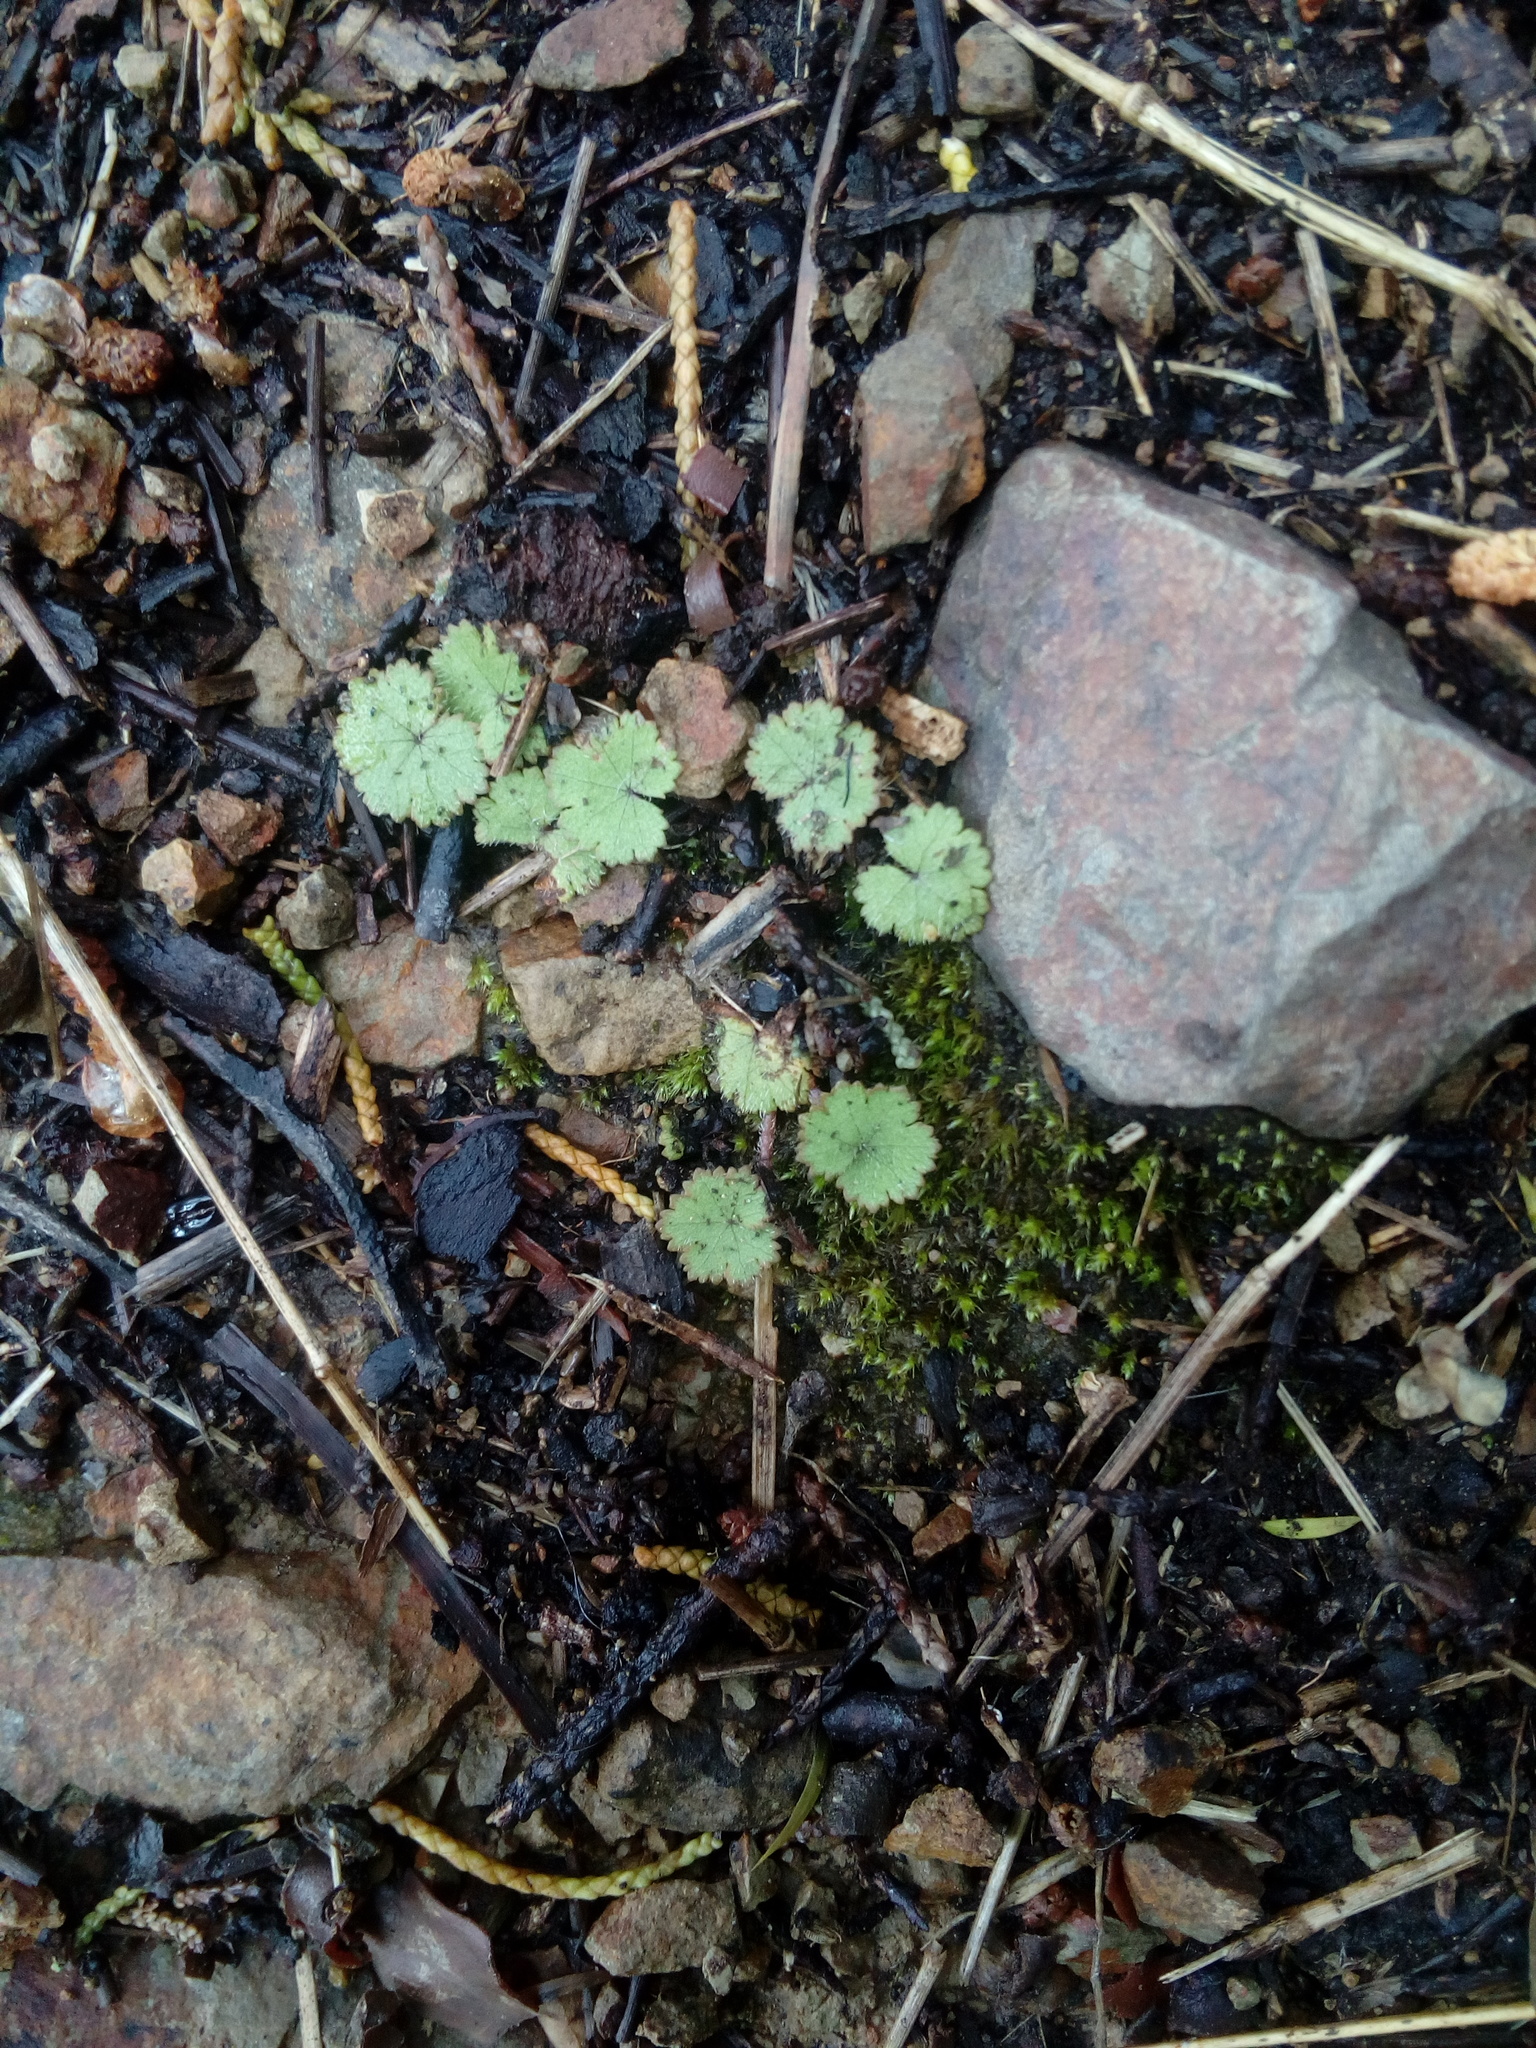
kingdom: Plantae
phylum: Tracheophyta
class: Magnoliopsida
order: Apiales
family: Araliaceae
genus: Hydrocotyle
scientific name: Hydrocotyle moschata
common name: Hairy pennywort
